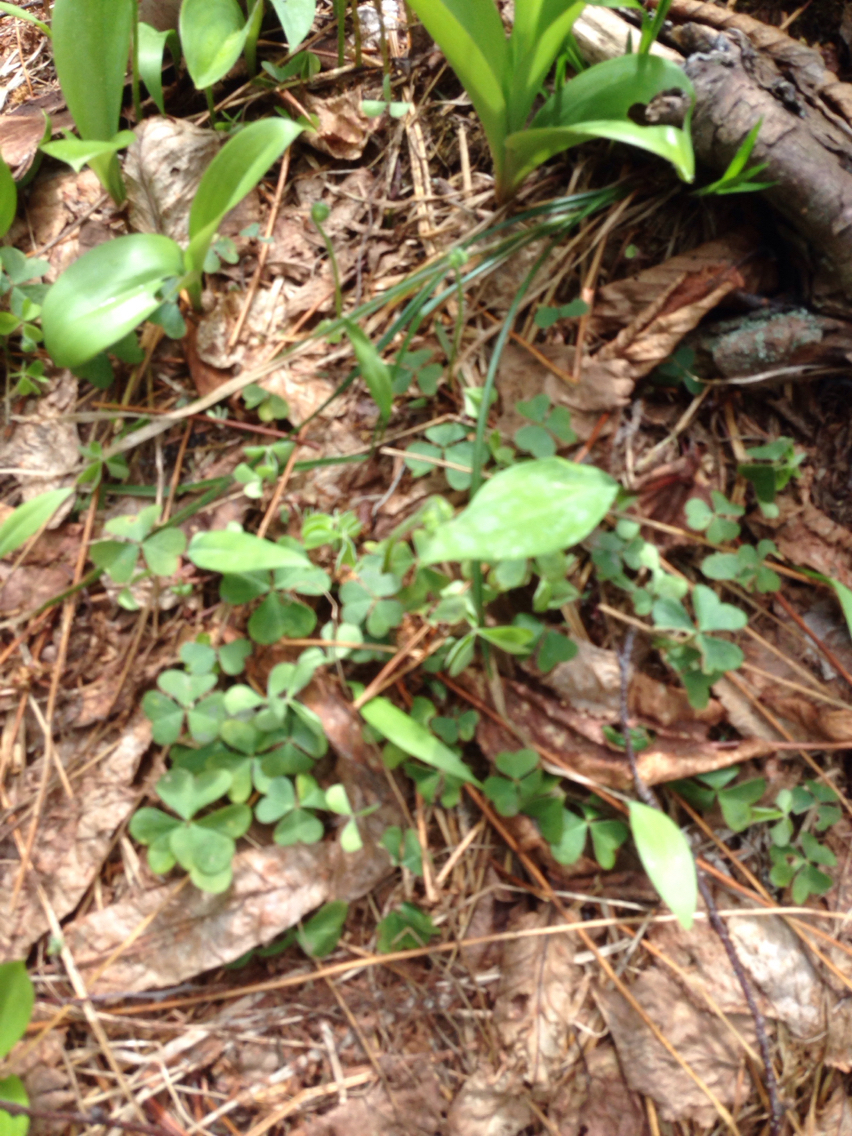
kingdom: Plantae
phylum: Tracheophyta
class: Magnoliopsida
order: Oxalidales
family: Oxalidaceae
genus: Oxalis
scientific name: Oxalis montana
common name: American wood-sorrel
